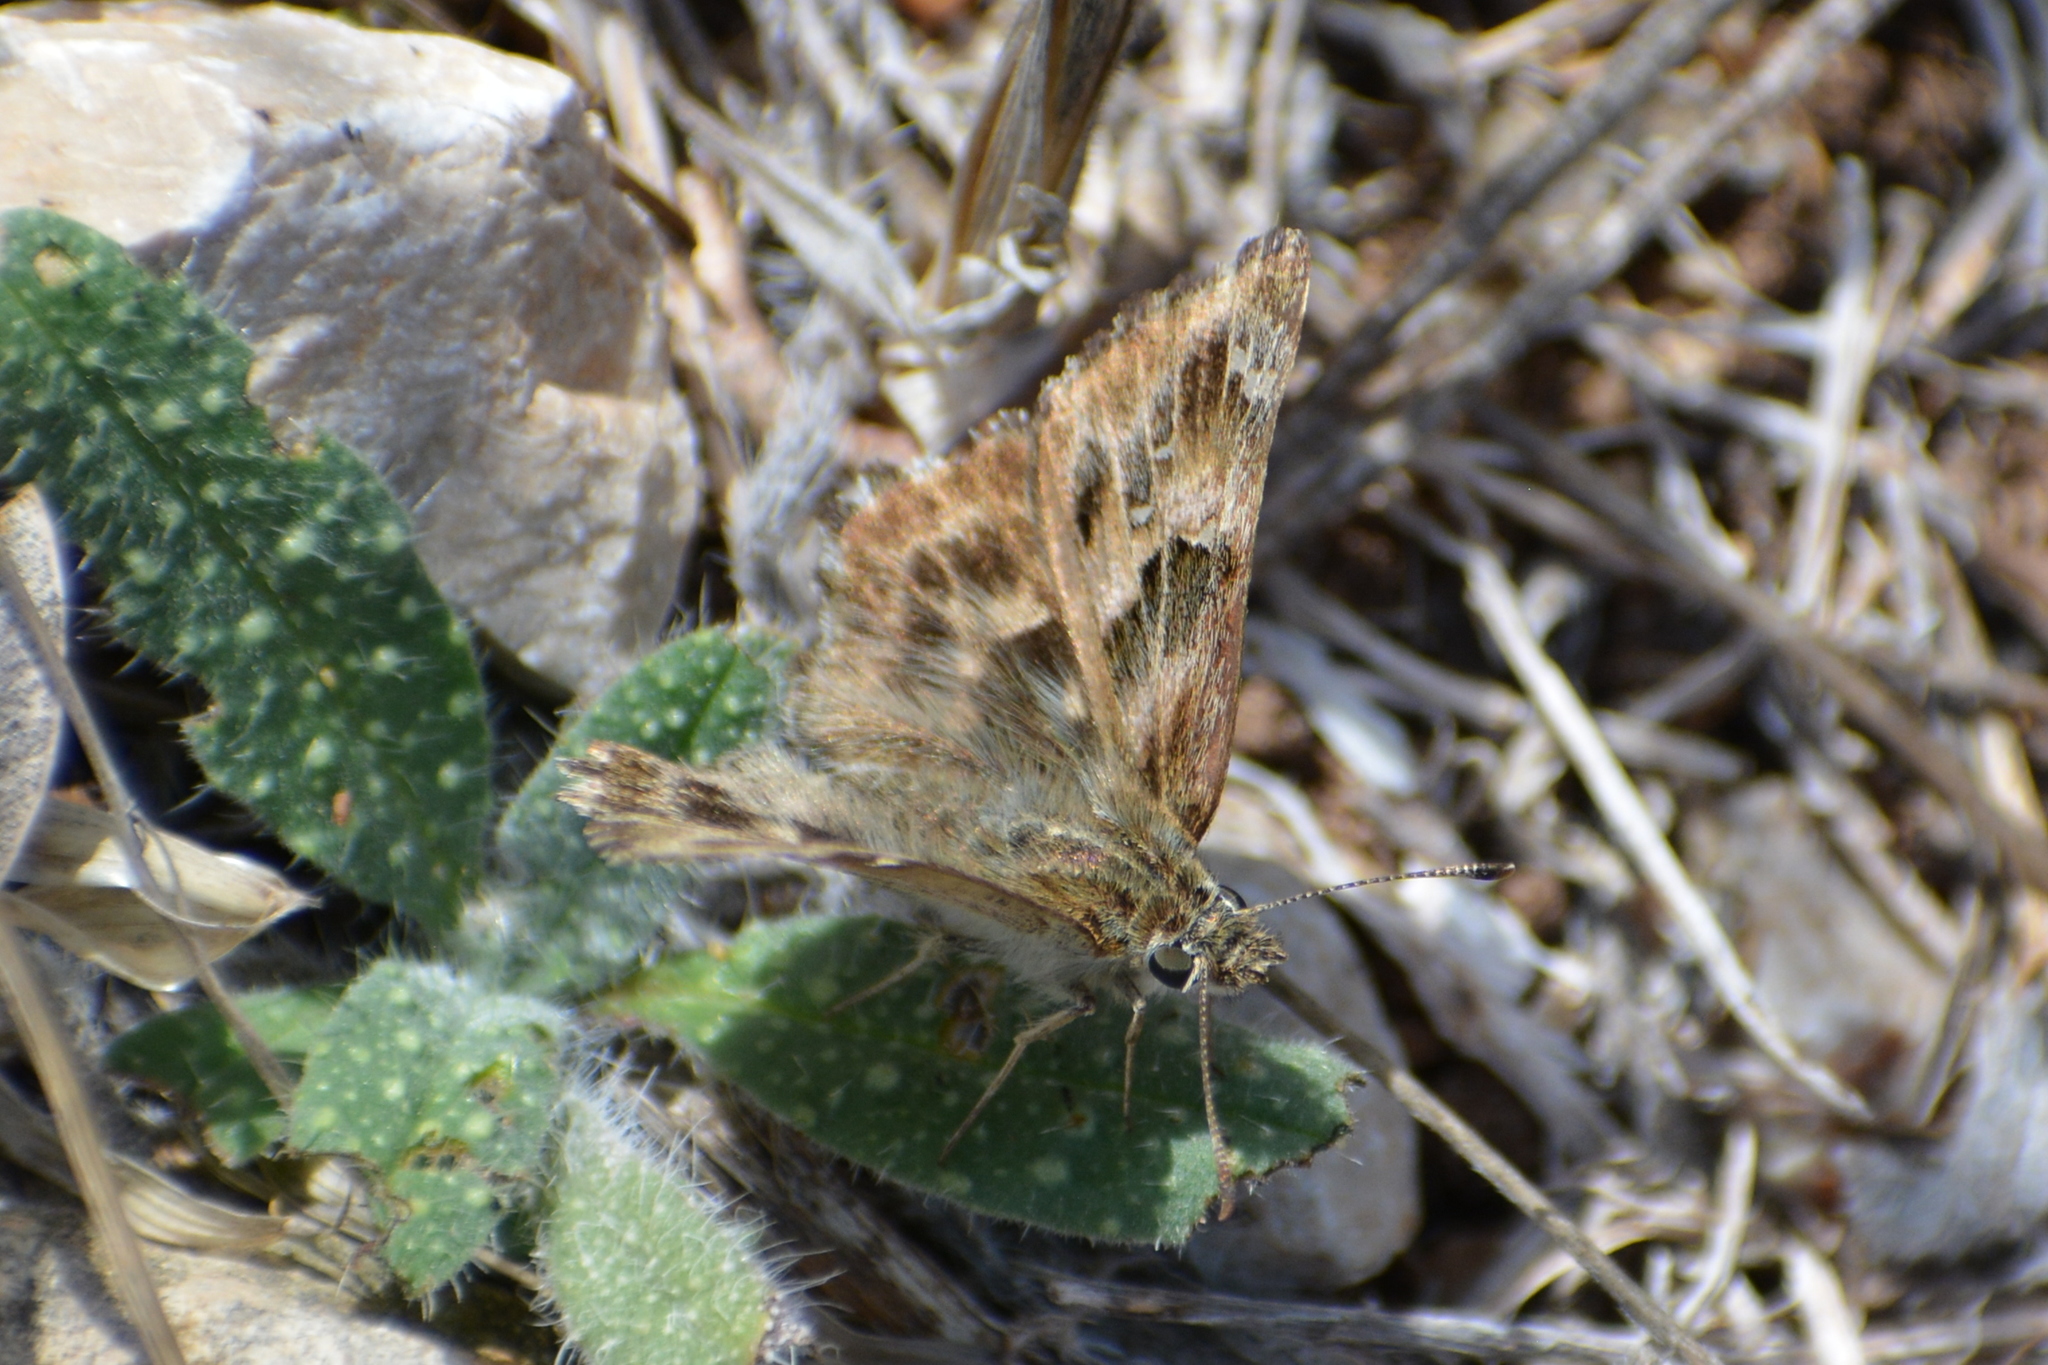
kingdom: Animalia
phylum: Arthropoda
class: Insecta
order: Lepidoptera
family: Hesperiidae
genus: Carcharodus
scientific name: Carcharodus alceae
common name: Mallow skipper
